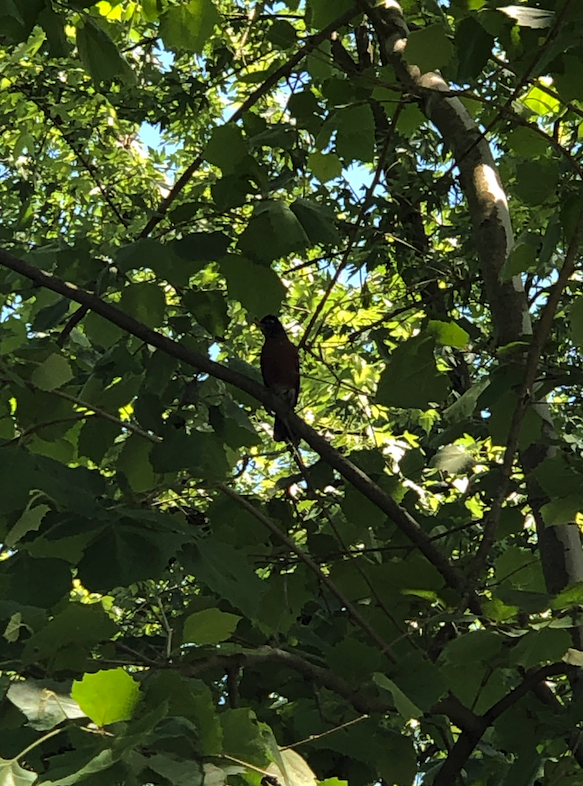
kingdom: Animalia
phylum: Chordata
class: Aves
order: Passeriformes
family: Turdidae
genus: Turdus
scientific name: Turdus migratorius
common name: American robin
